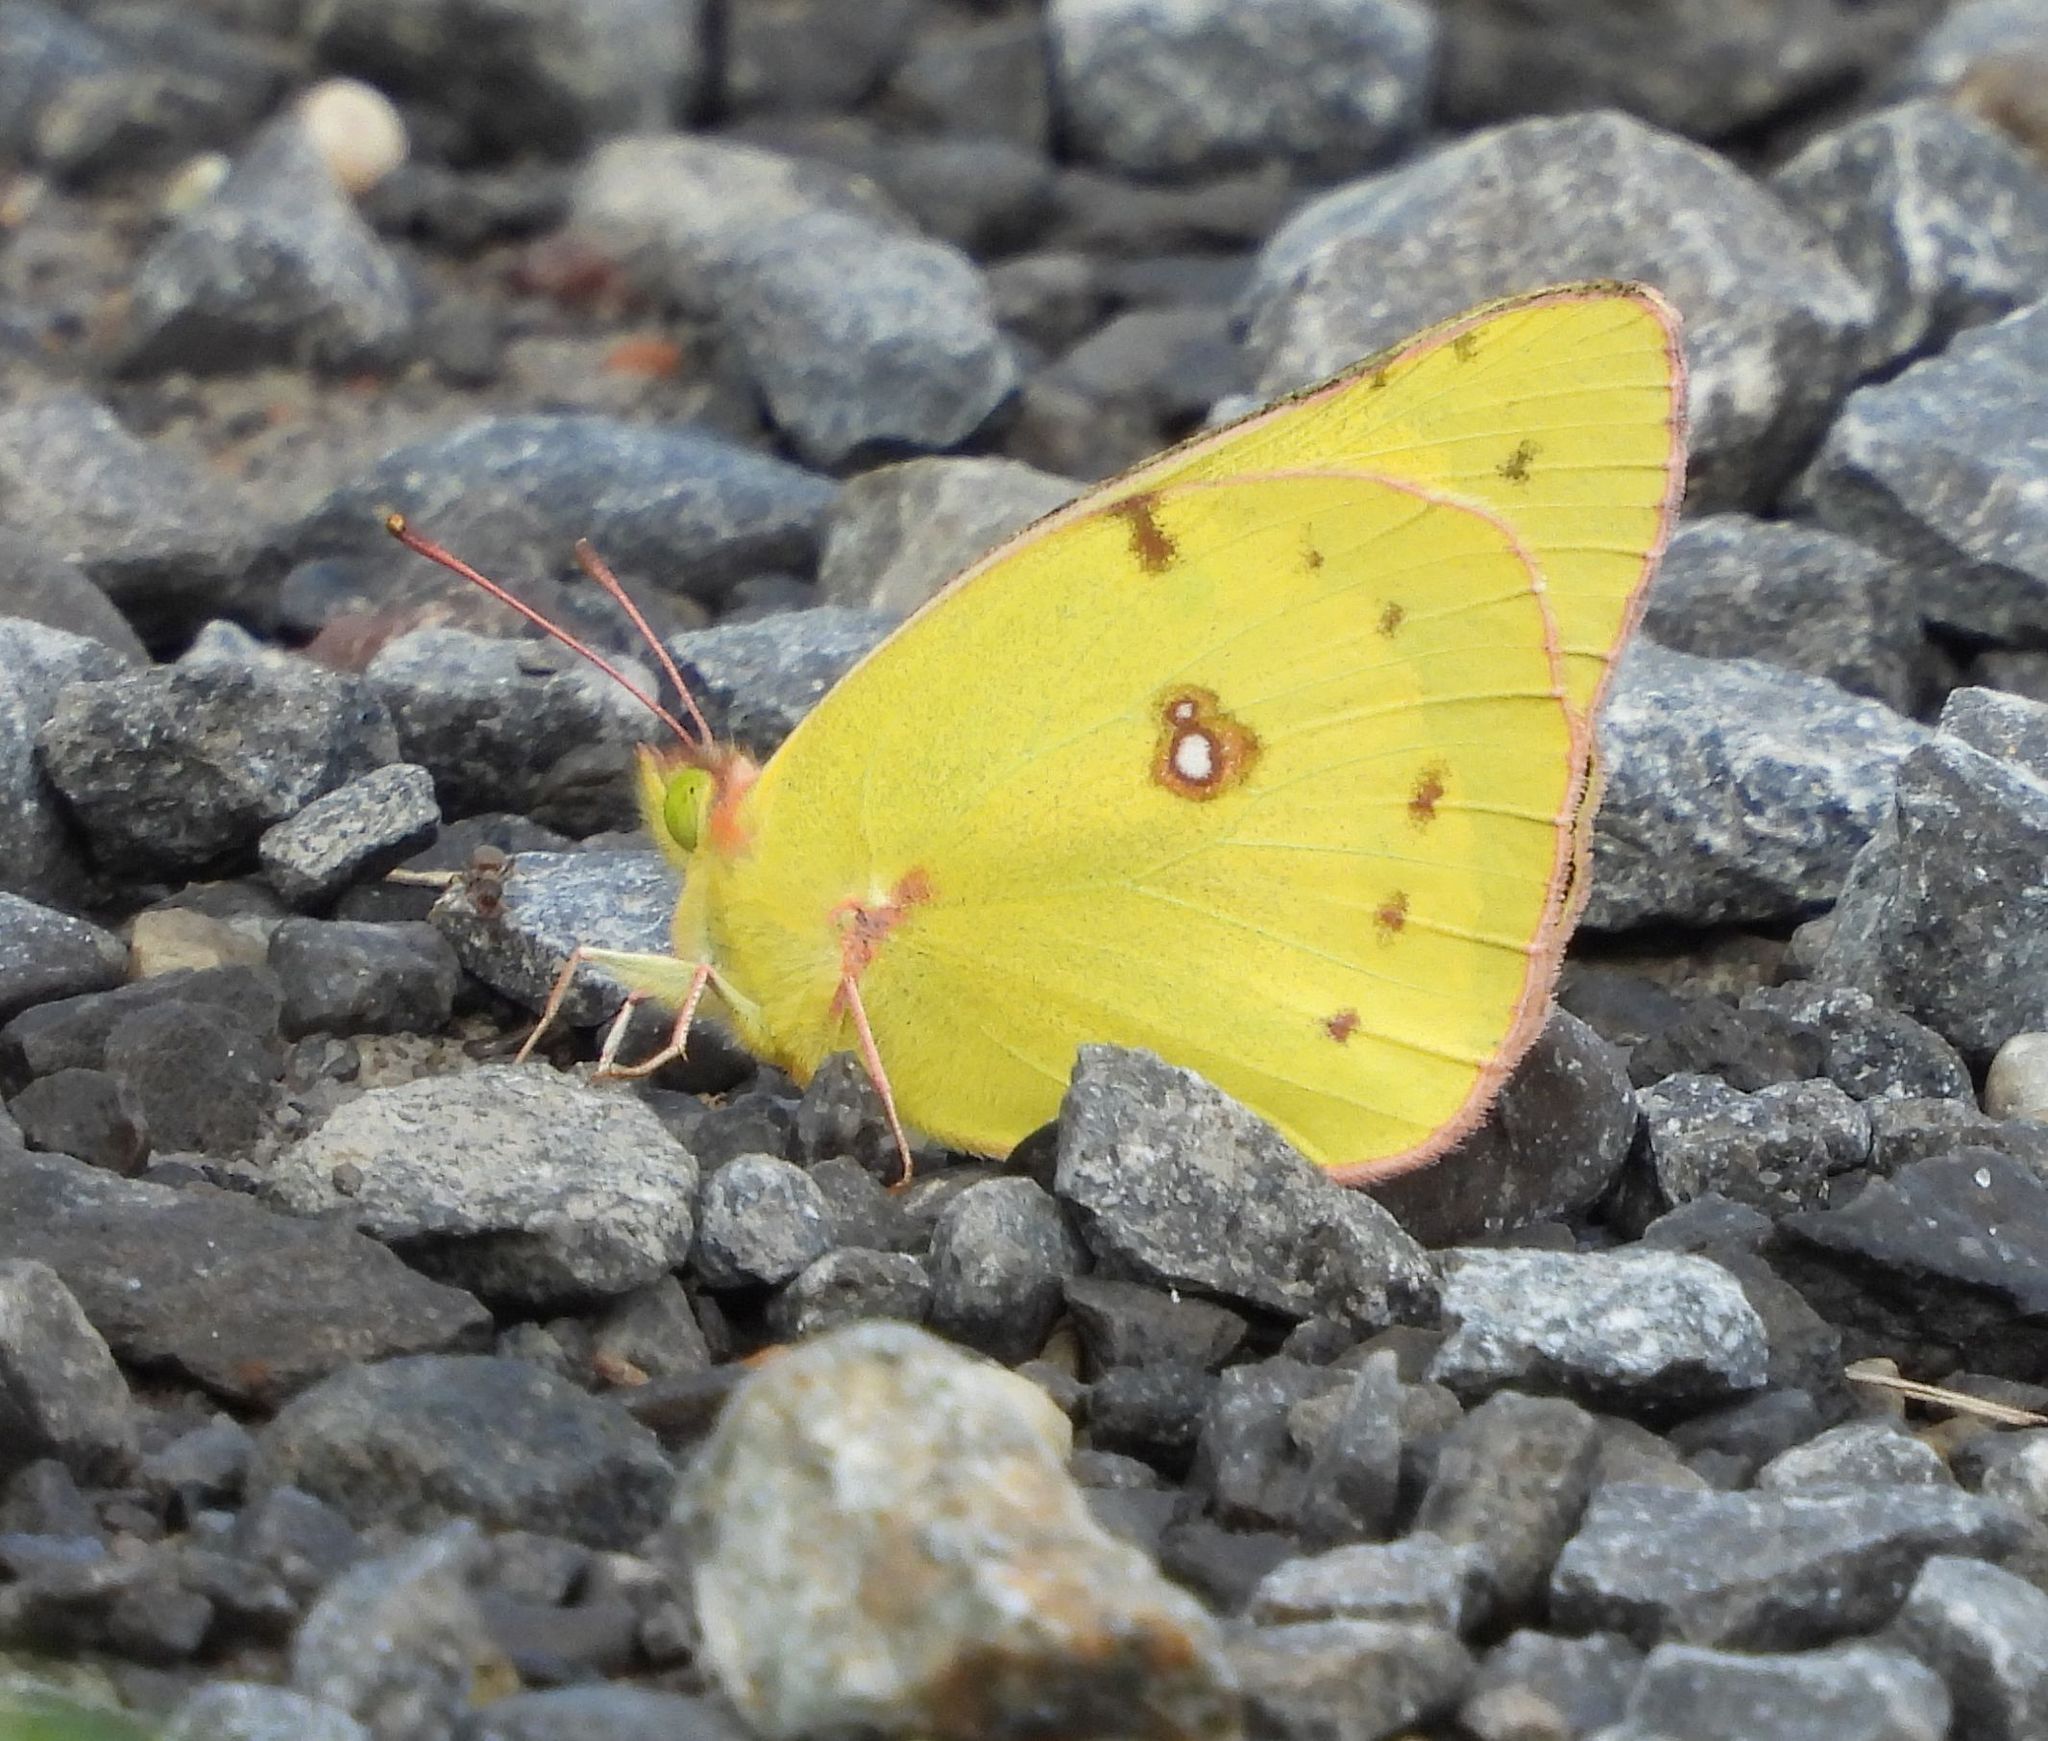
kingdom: Animalia
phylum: Arthropoda
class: Insecta
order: Lepidoptera
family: Pieridae
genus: Colias
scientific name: Colias eurytheme
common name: Alfalfa butterfly
